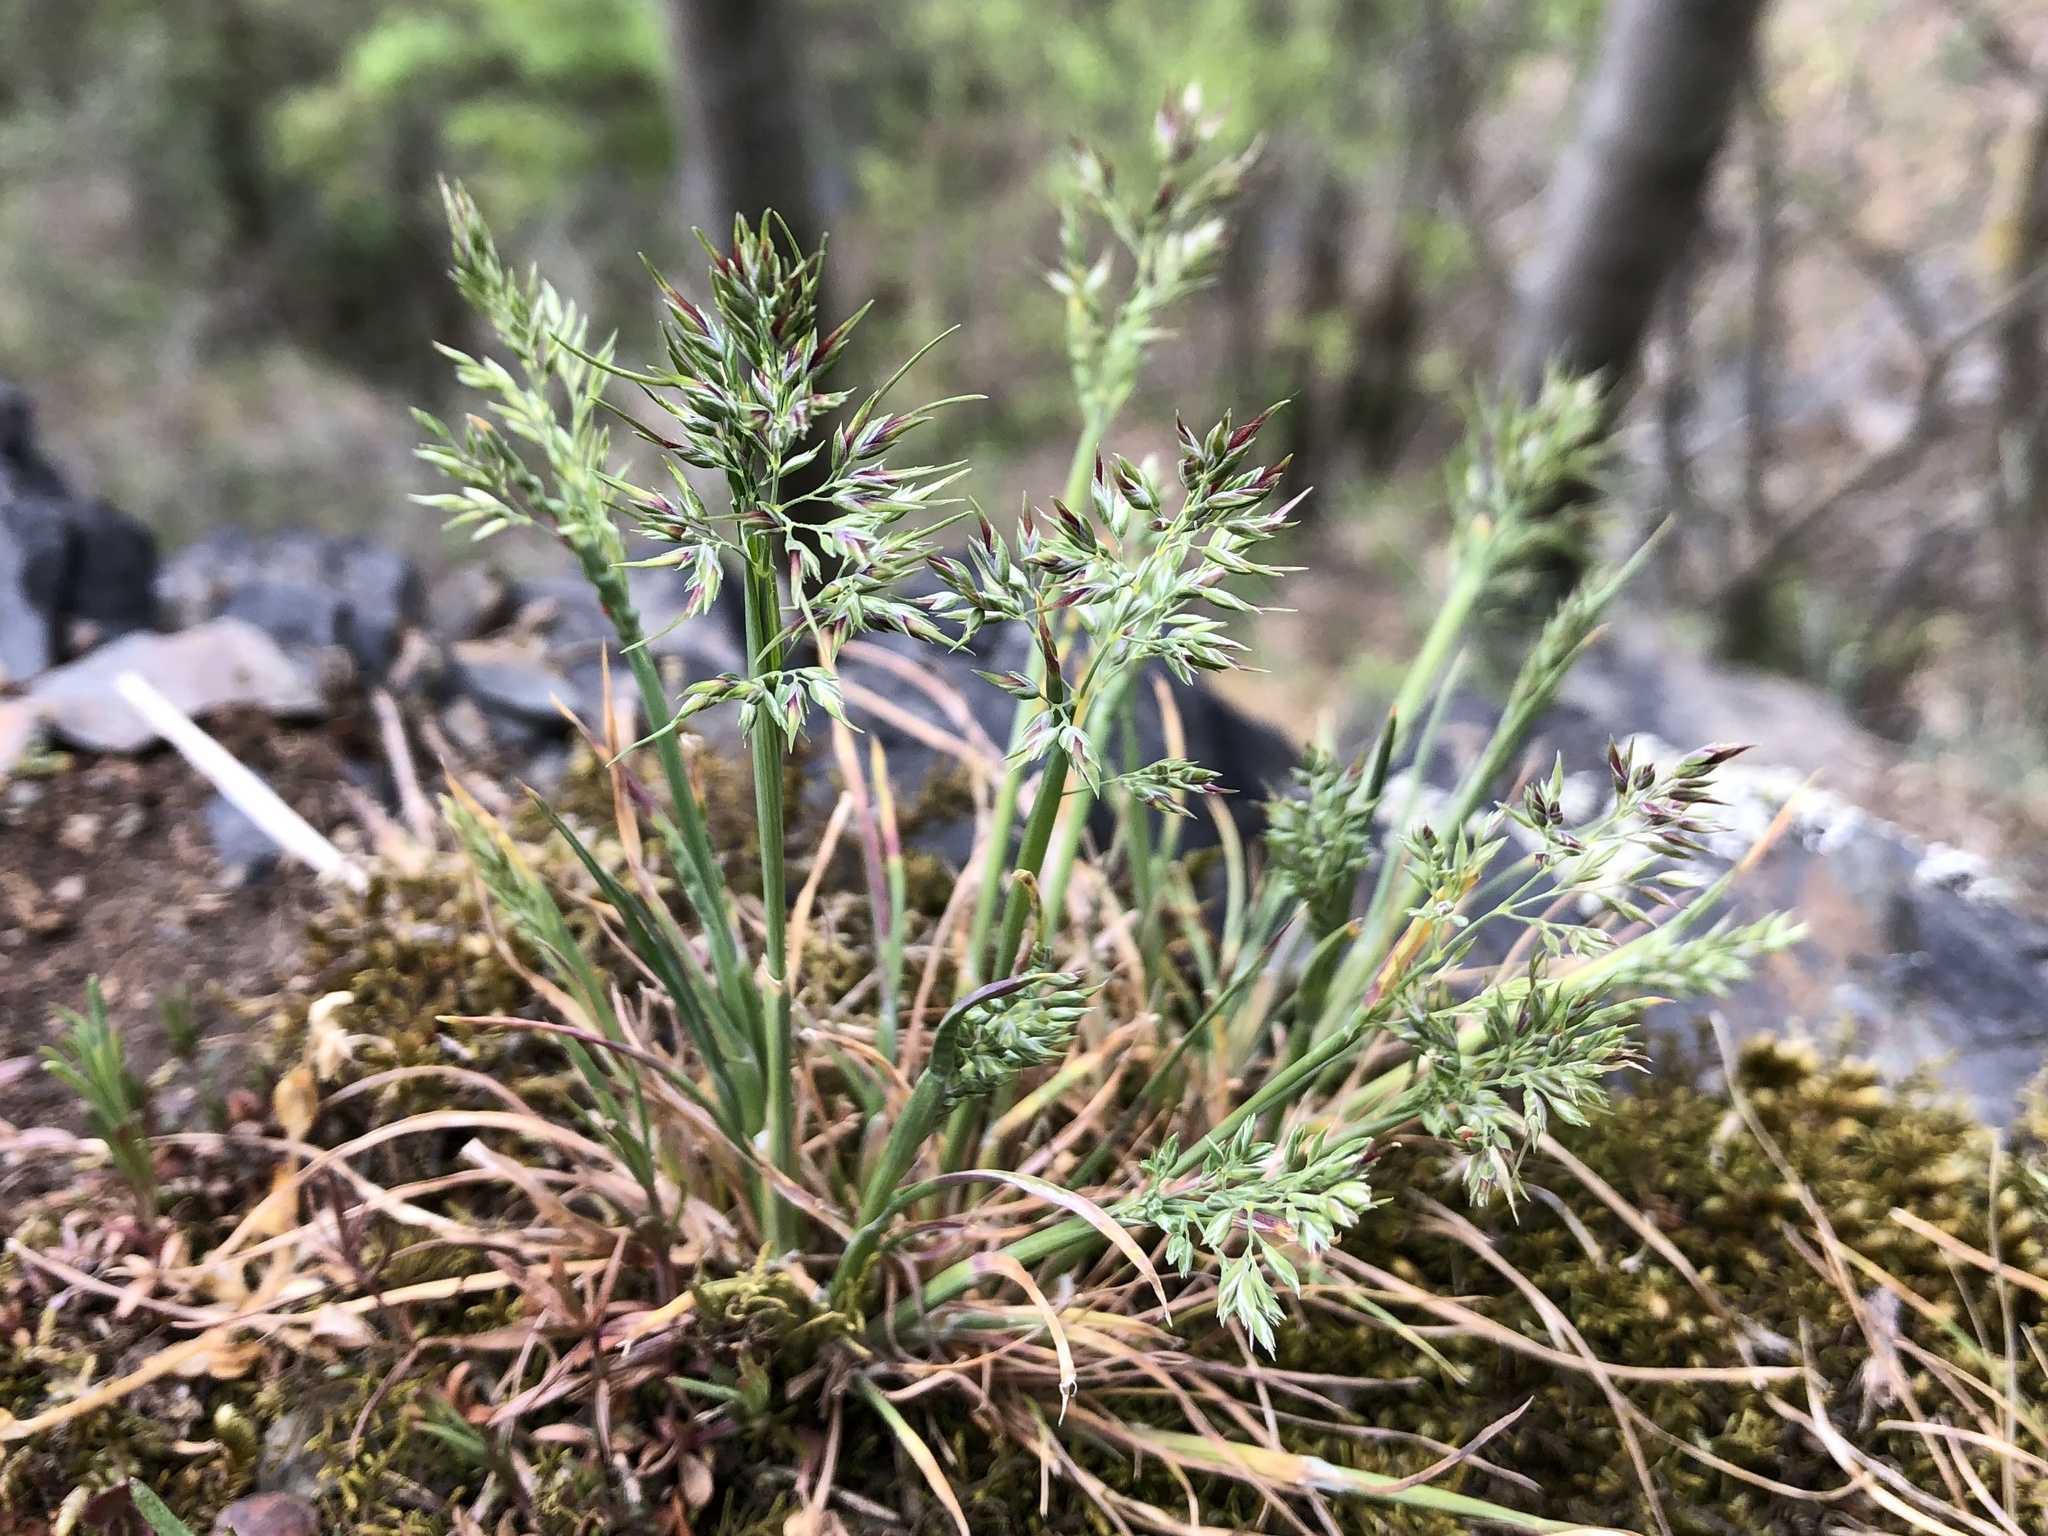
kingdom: Plantae
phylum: Tracheophyta
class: Liliopsida
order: Poales
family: Poaceae
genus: Poa
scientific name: Poa bulbosa
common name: Bulbous bluegrass
